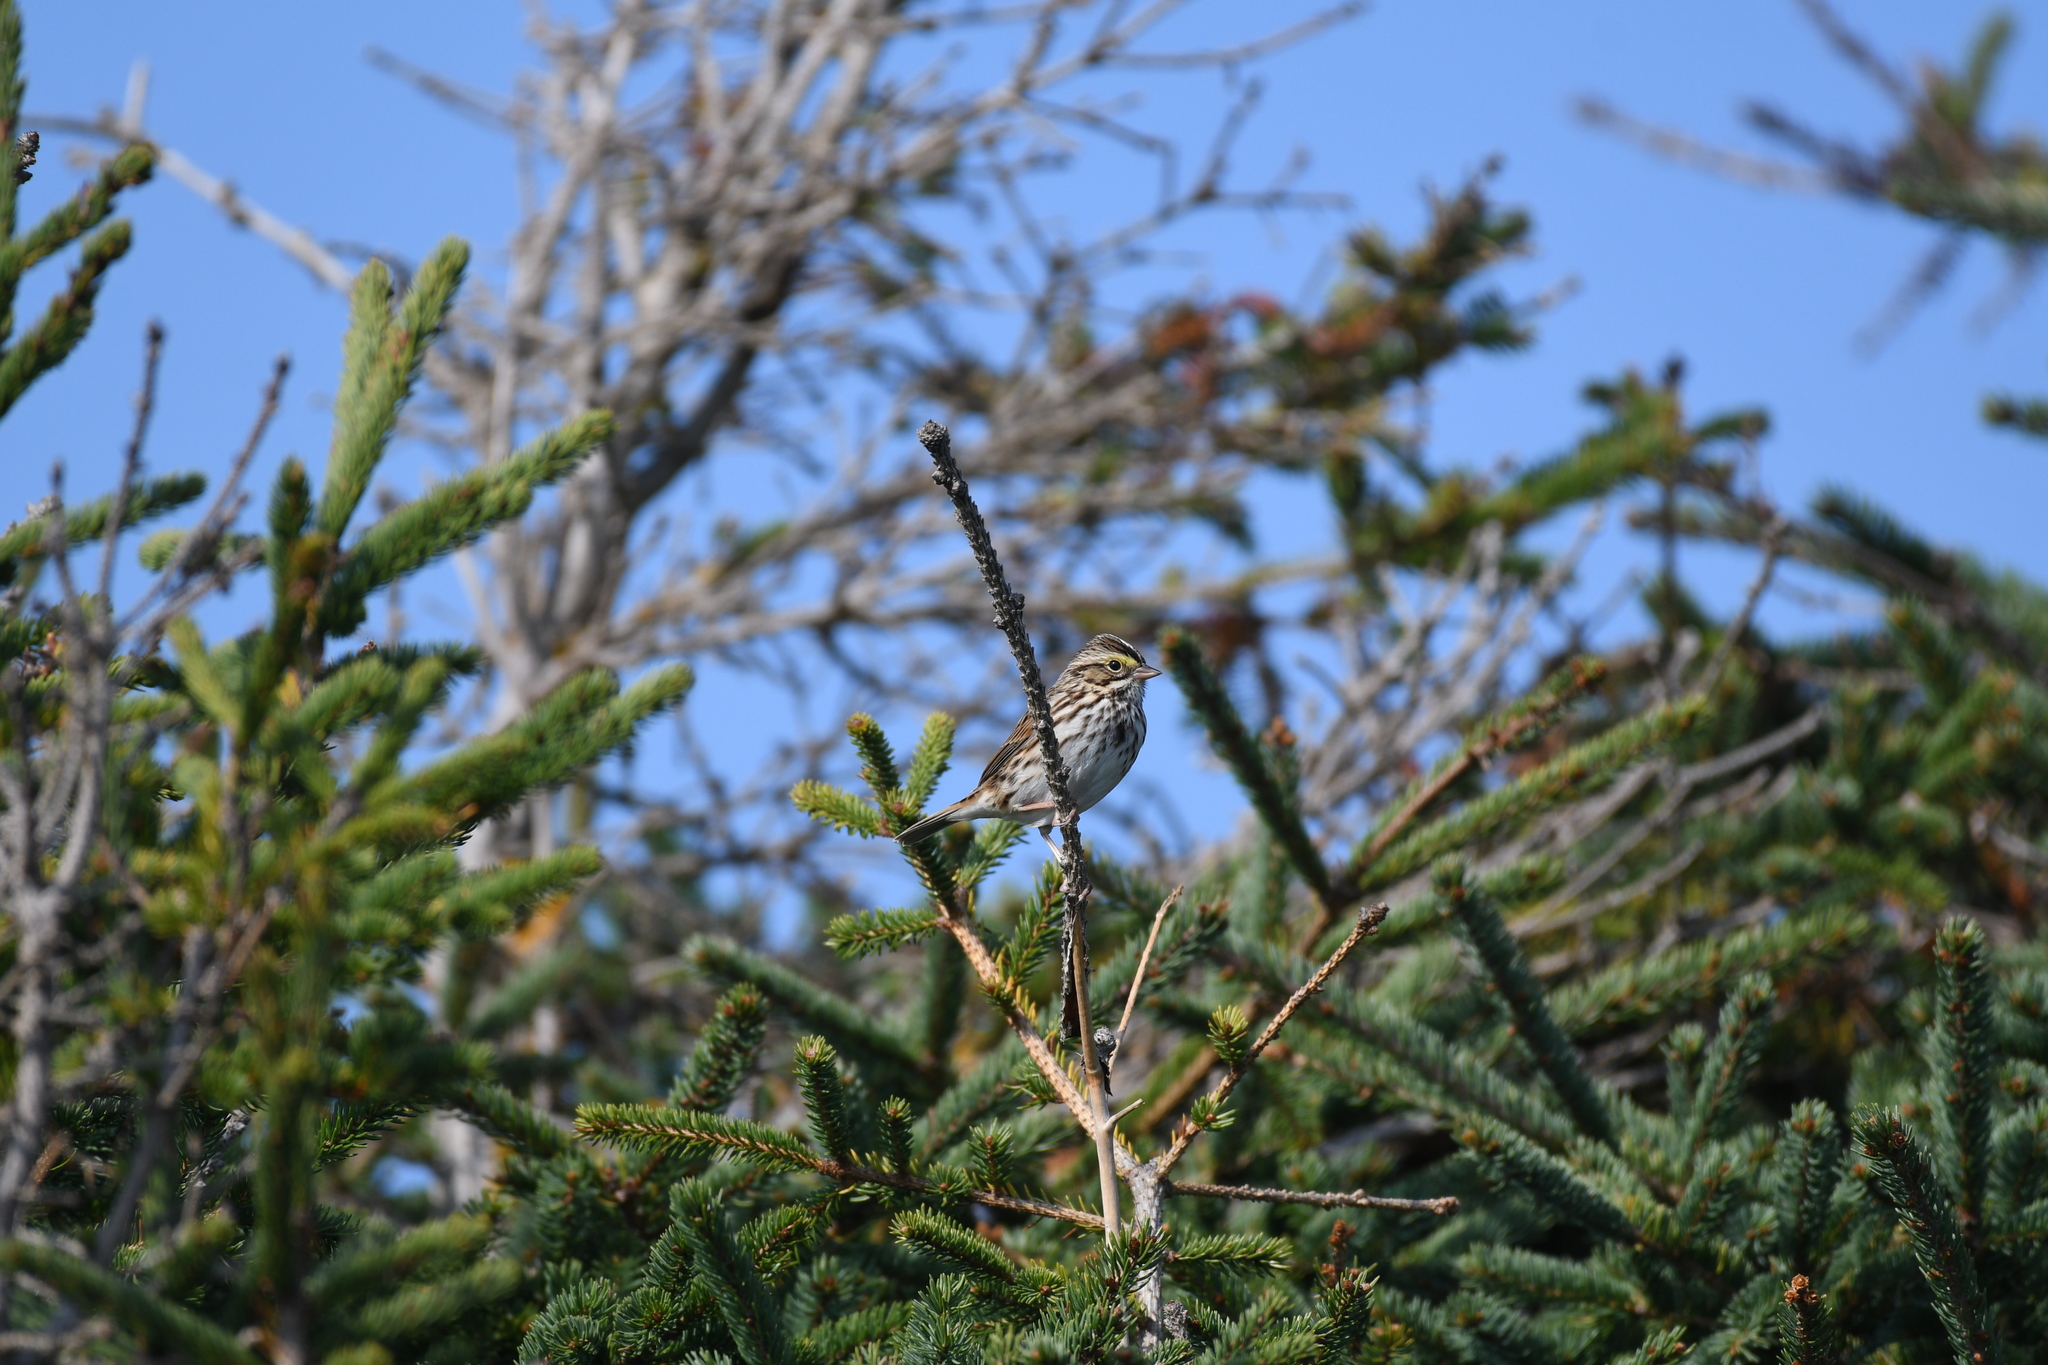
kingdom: Animalia
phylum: Chordata
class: Aves
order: Passeriformes
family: Passerellidae
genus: Passerculus
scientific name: Passerculus sandwichensis
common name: Savannah sparrow
